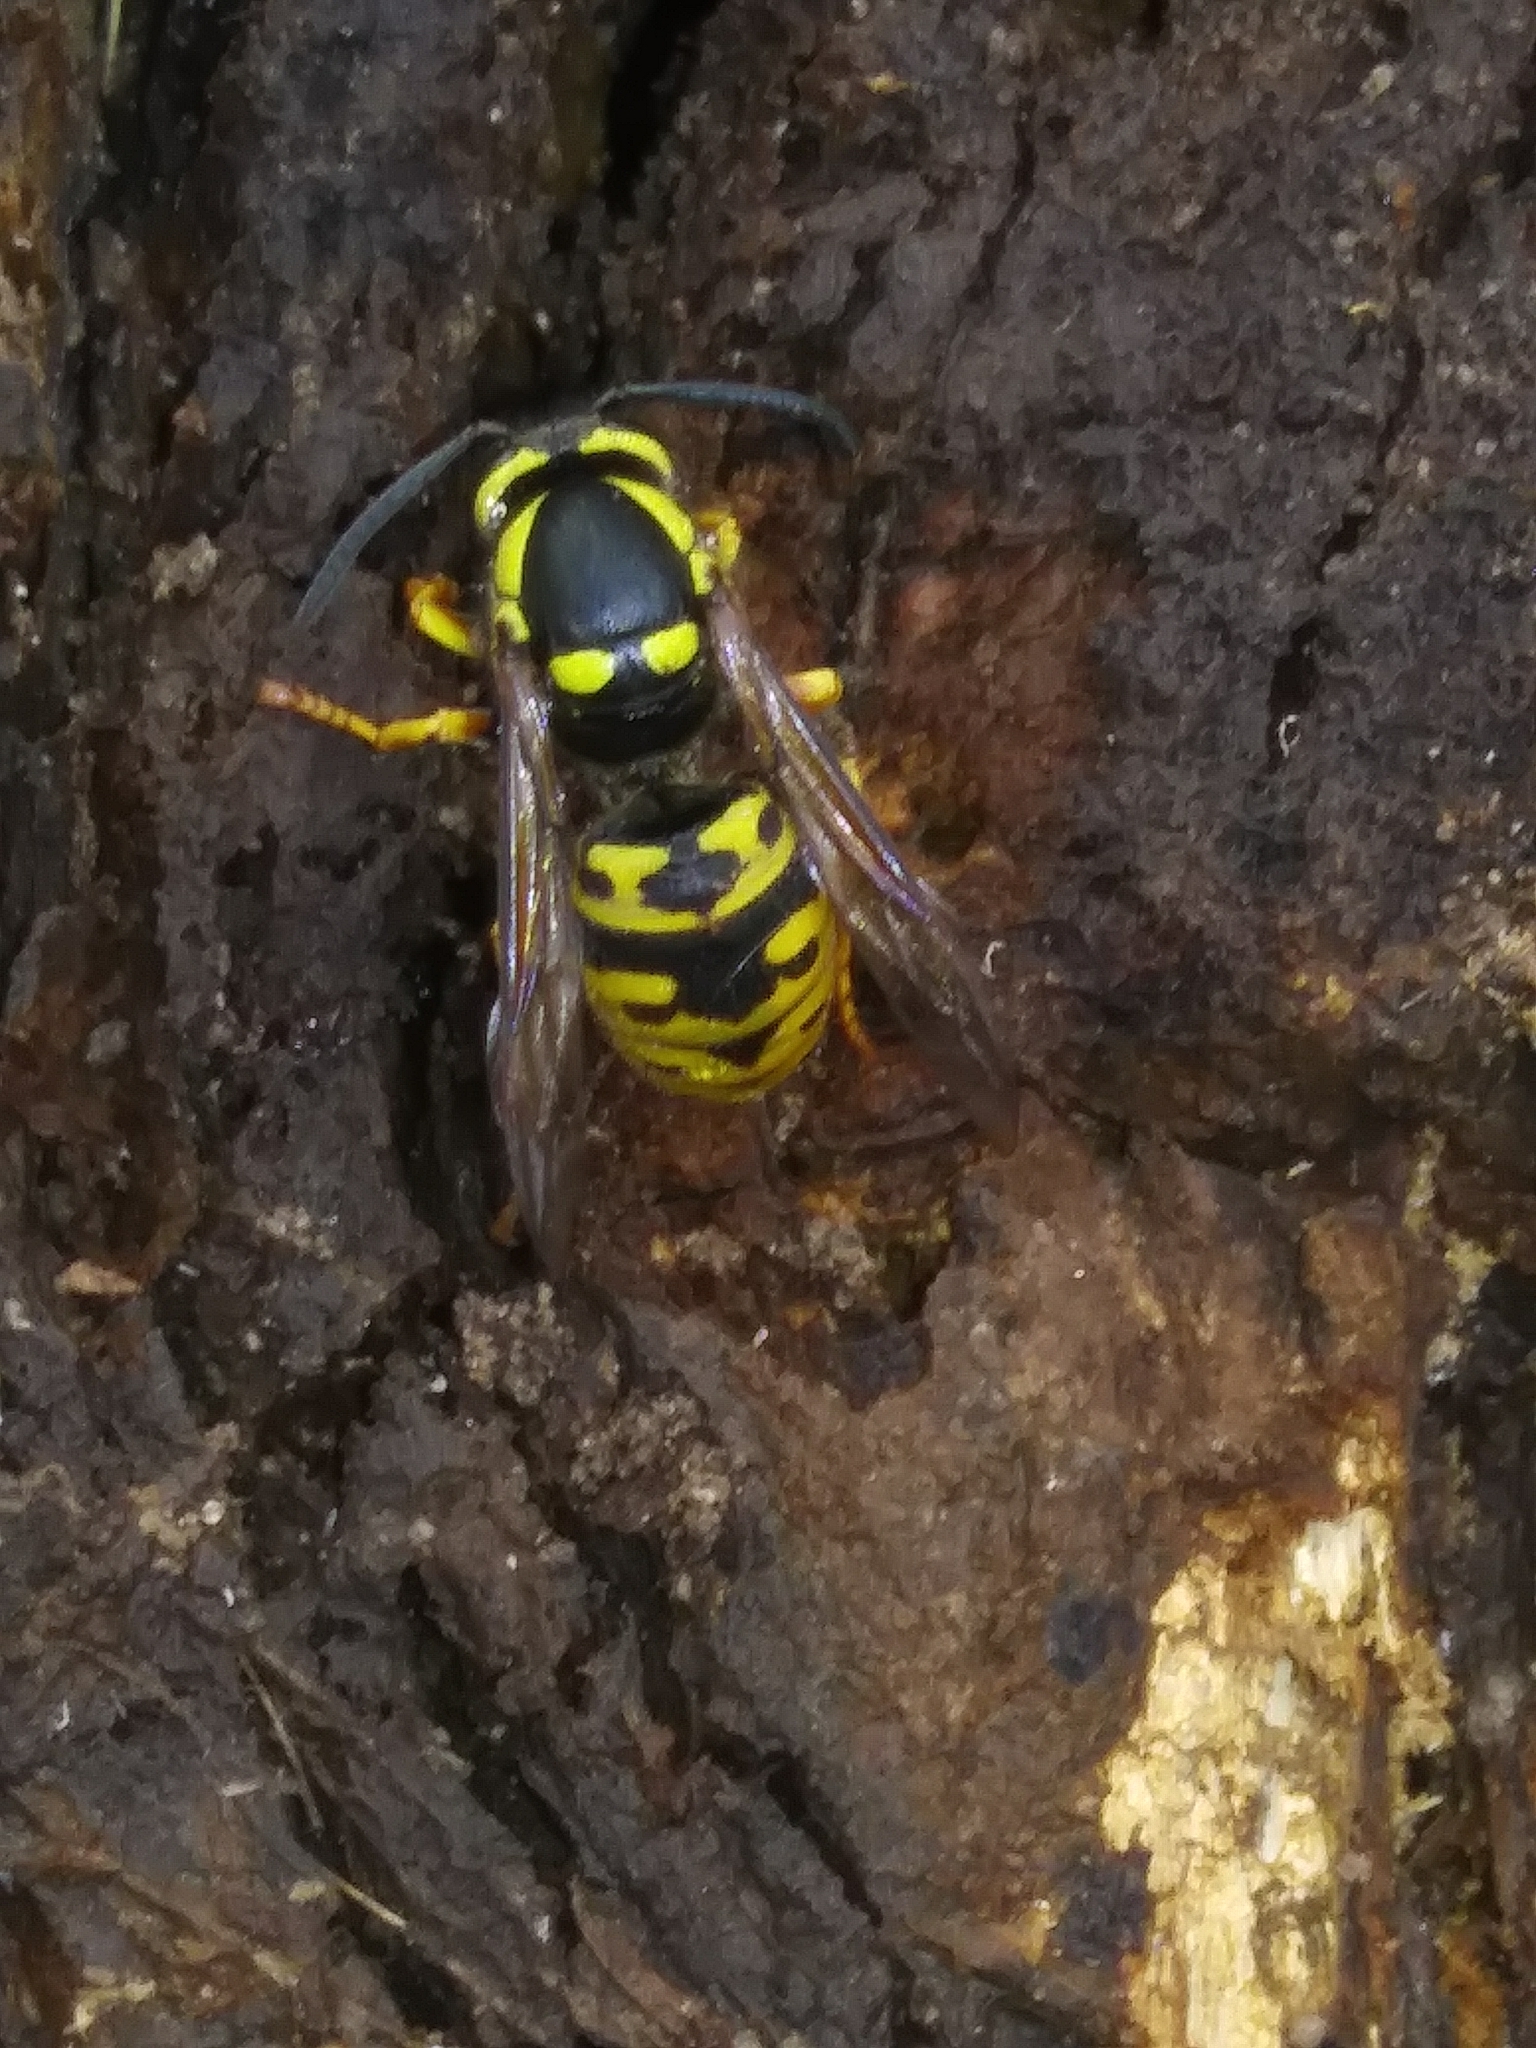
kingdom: Animalia
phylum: Arthropoda
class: Insecta
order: Hymenoptera
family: Vespidae
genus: Vespula
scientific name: Vespula atropilosa
